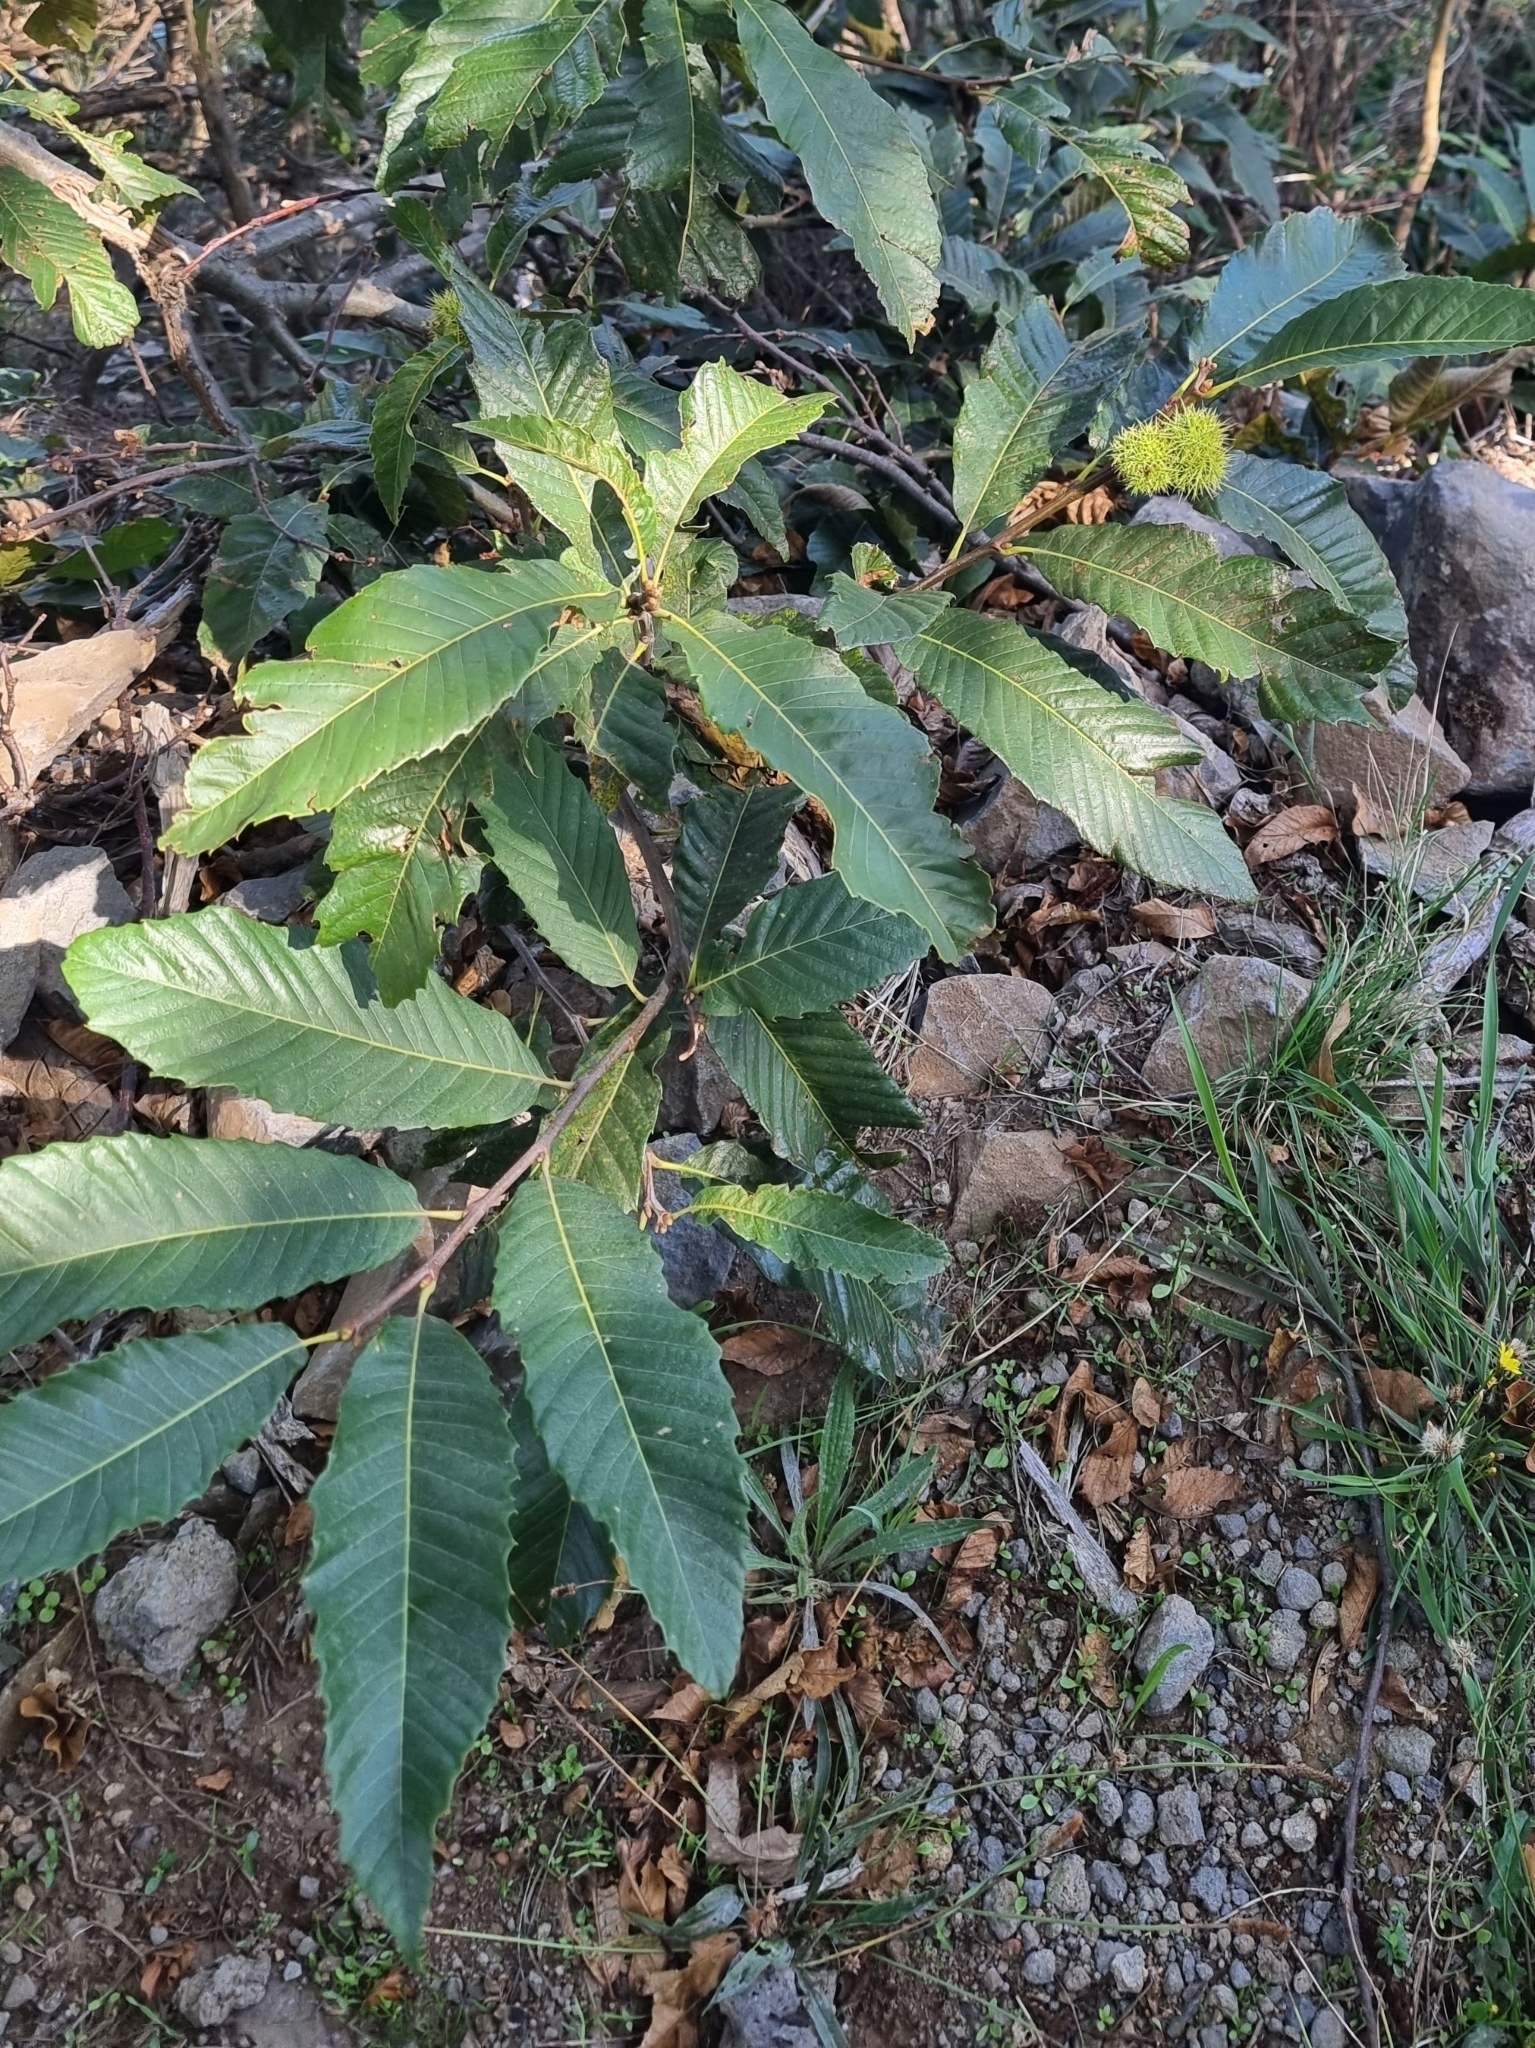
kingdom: Plantae
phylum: Tracheophyta
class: Magnoliopsida
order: Fagales
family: Fagaceae
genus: Castanea
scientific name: Castanea sativa
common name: Sweet chestnut
